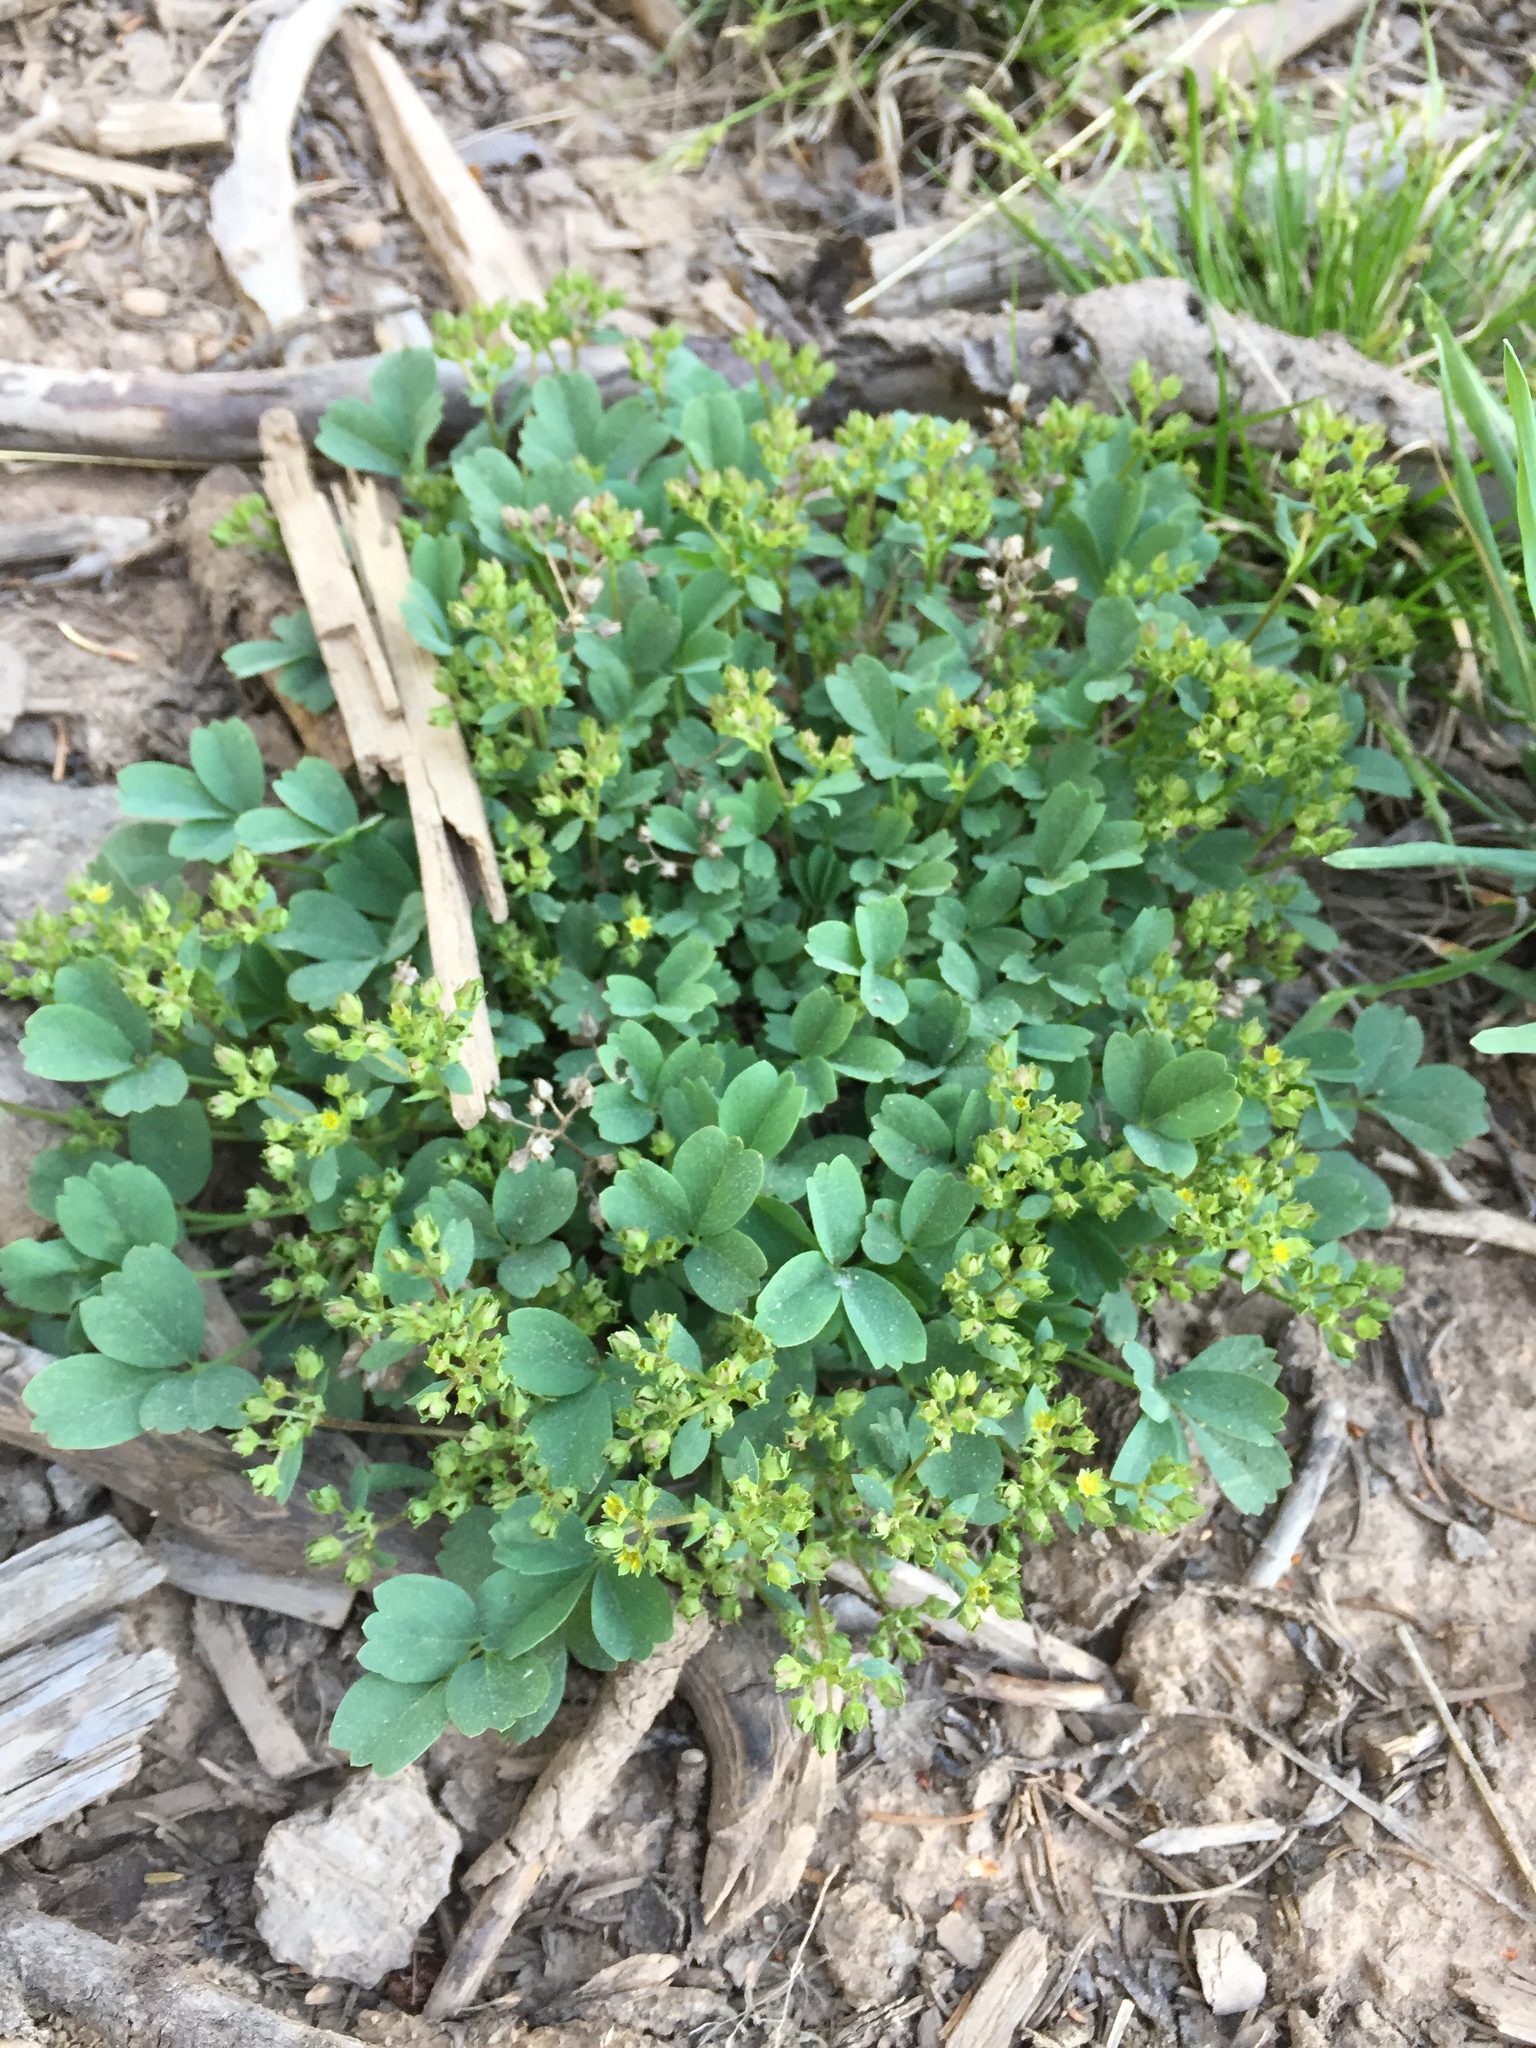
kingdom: Plantae
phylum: Tracheophyta
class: Magnoliopsida
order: Rosales
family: Rosaceae
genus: Sibbaldia
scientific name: Sibbaldia procumbens
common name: Creeping sibbaldia
